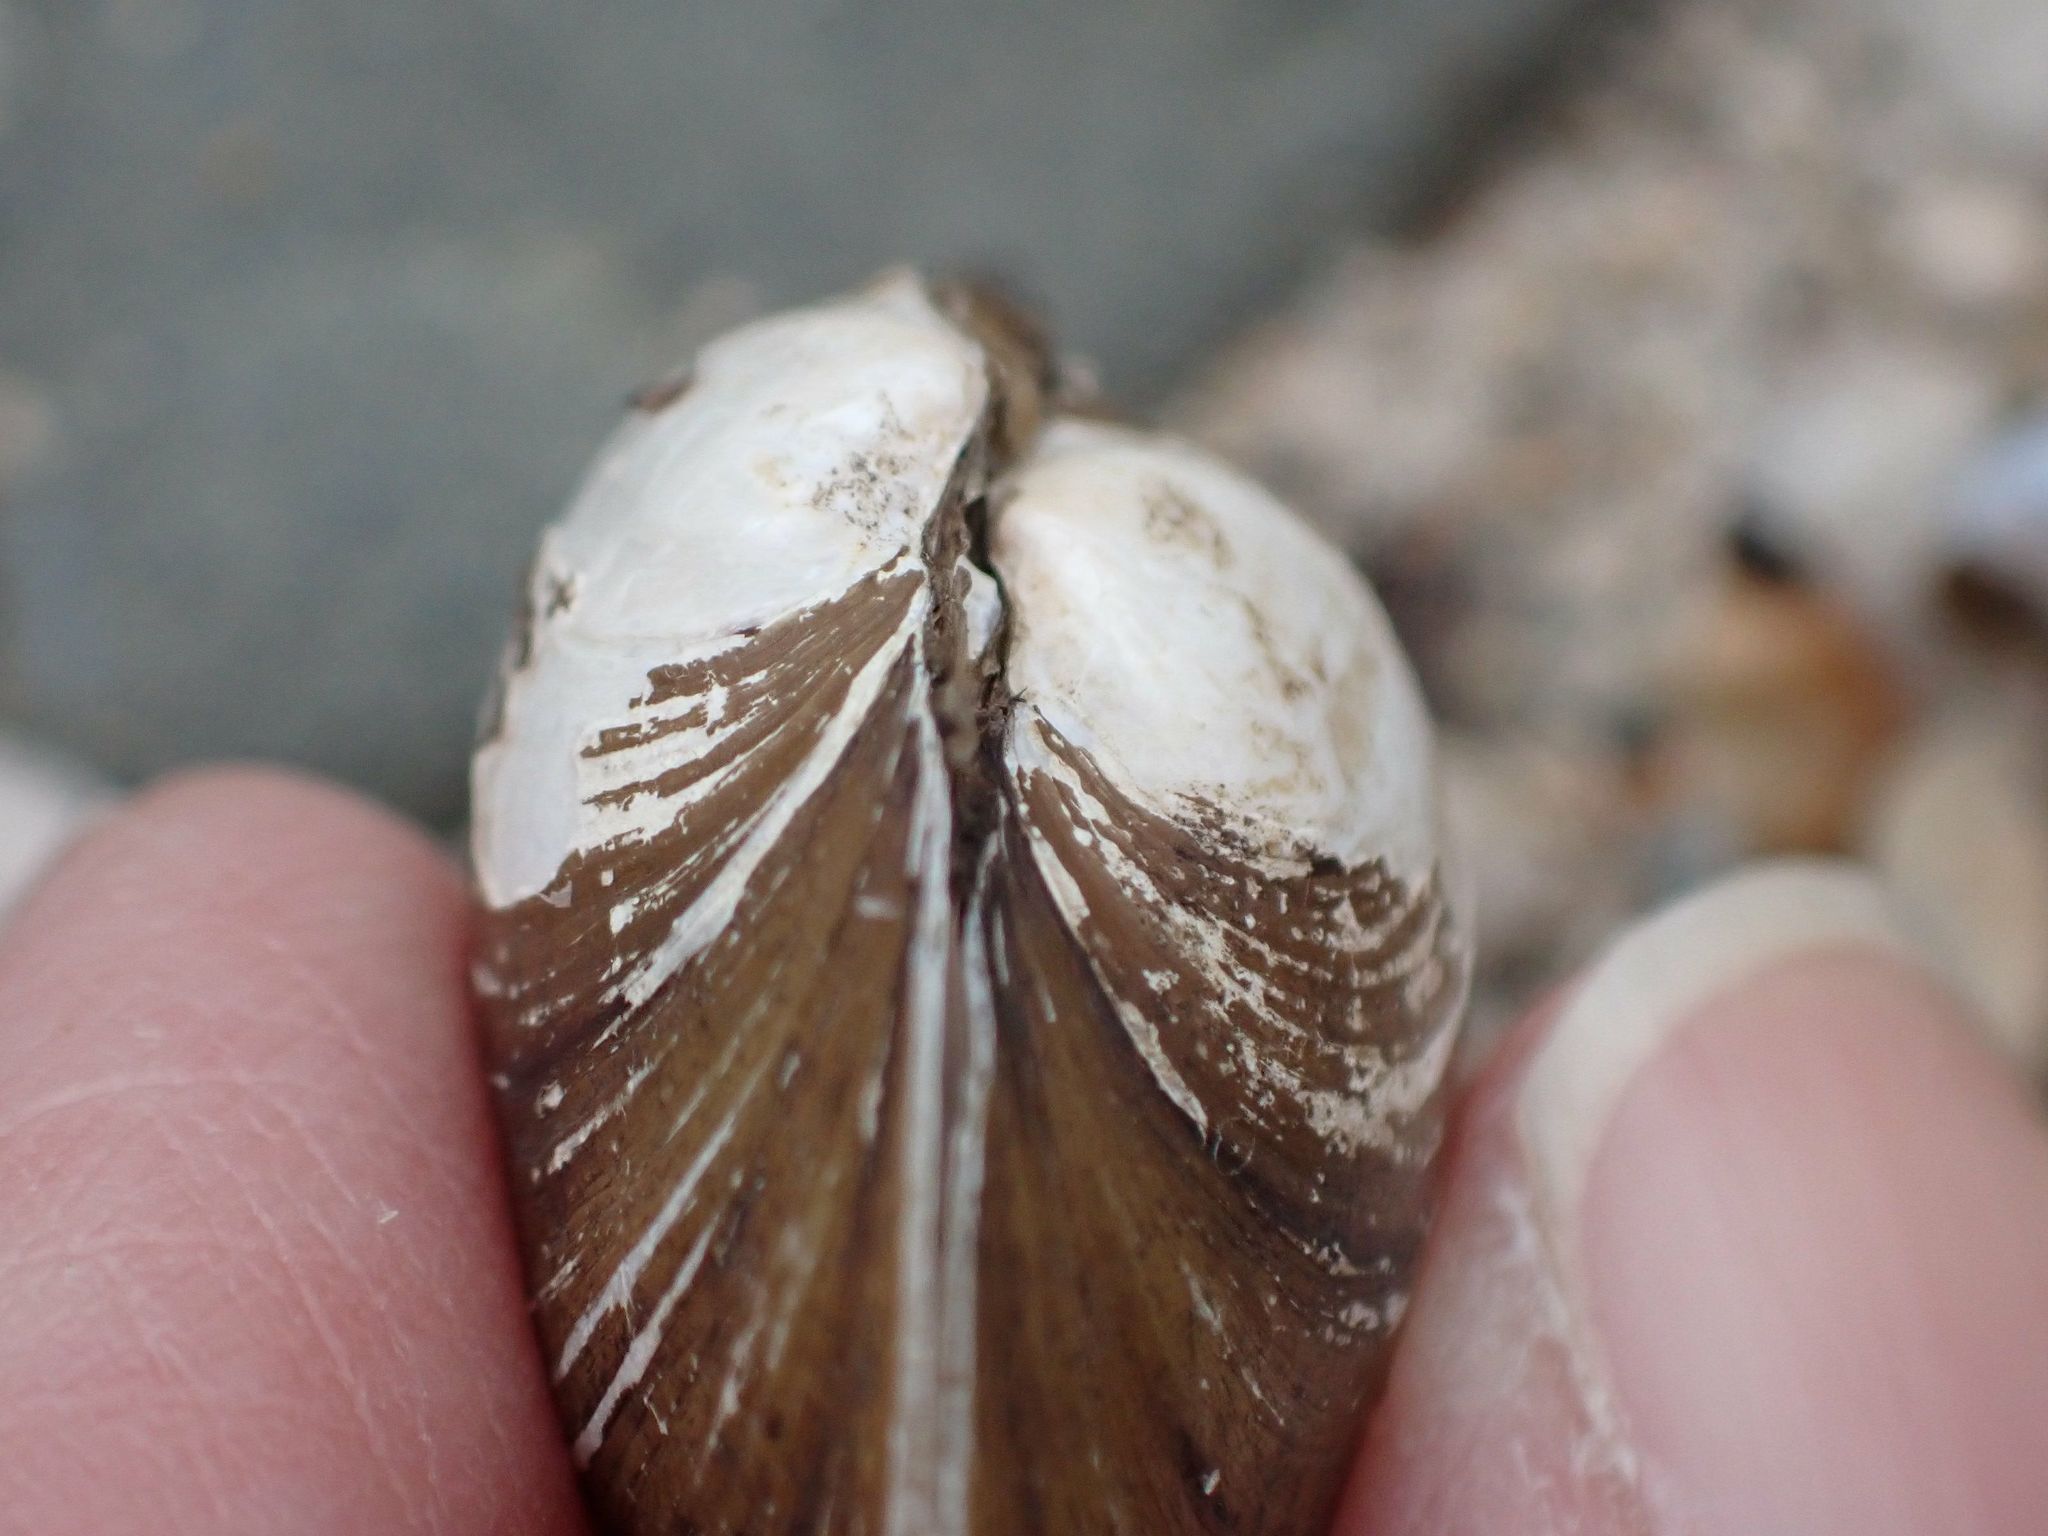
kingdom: Animalia
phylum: Mollusca
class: Bivalvia
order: Unionida
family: Unionidae
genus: Lampsilis
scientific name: Lampsilis siliquoidea
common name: Fatmucket
